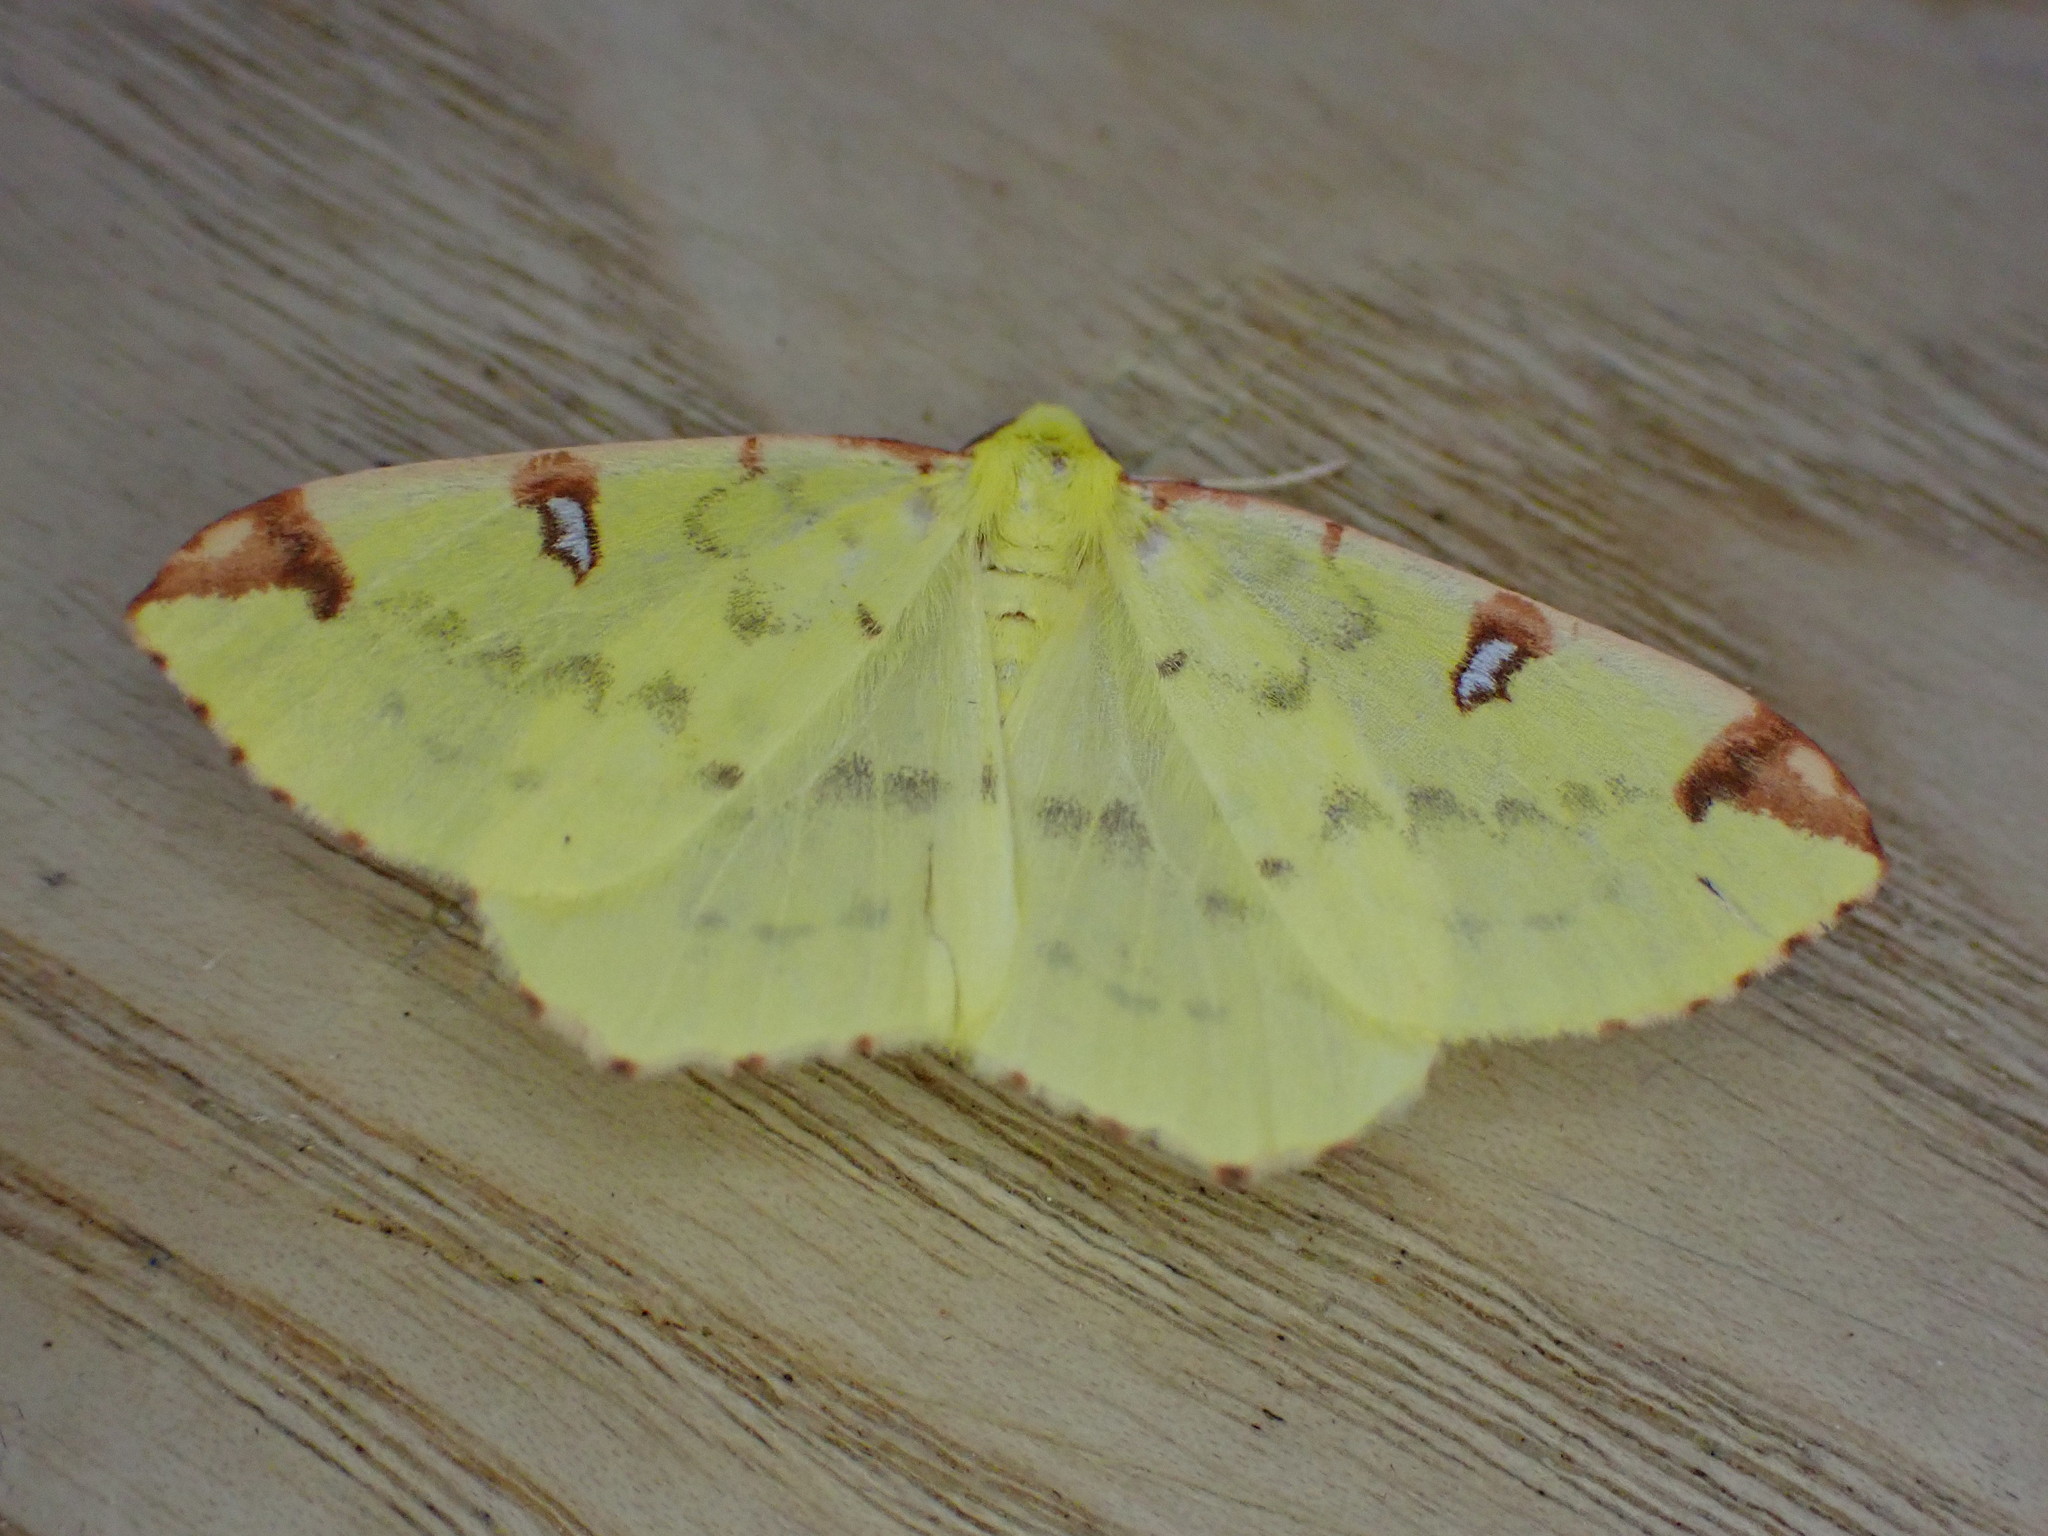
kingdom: Animalia
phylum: Arthropoda
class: Insecta
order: Lepidoptera
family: Geometridae
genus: Opisthograptis
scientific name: Opisthograptis luteolata
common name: Brimstone moth
